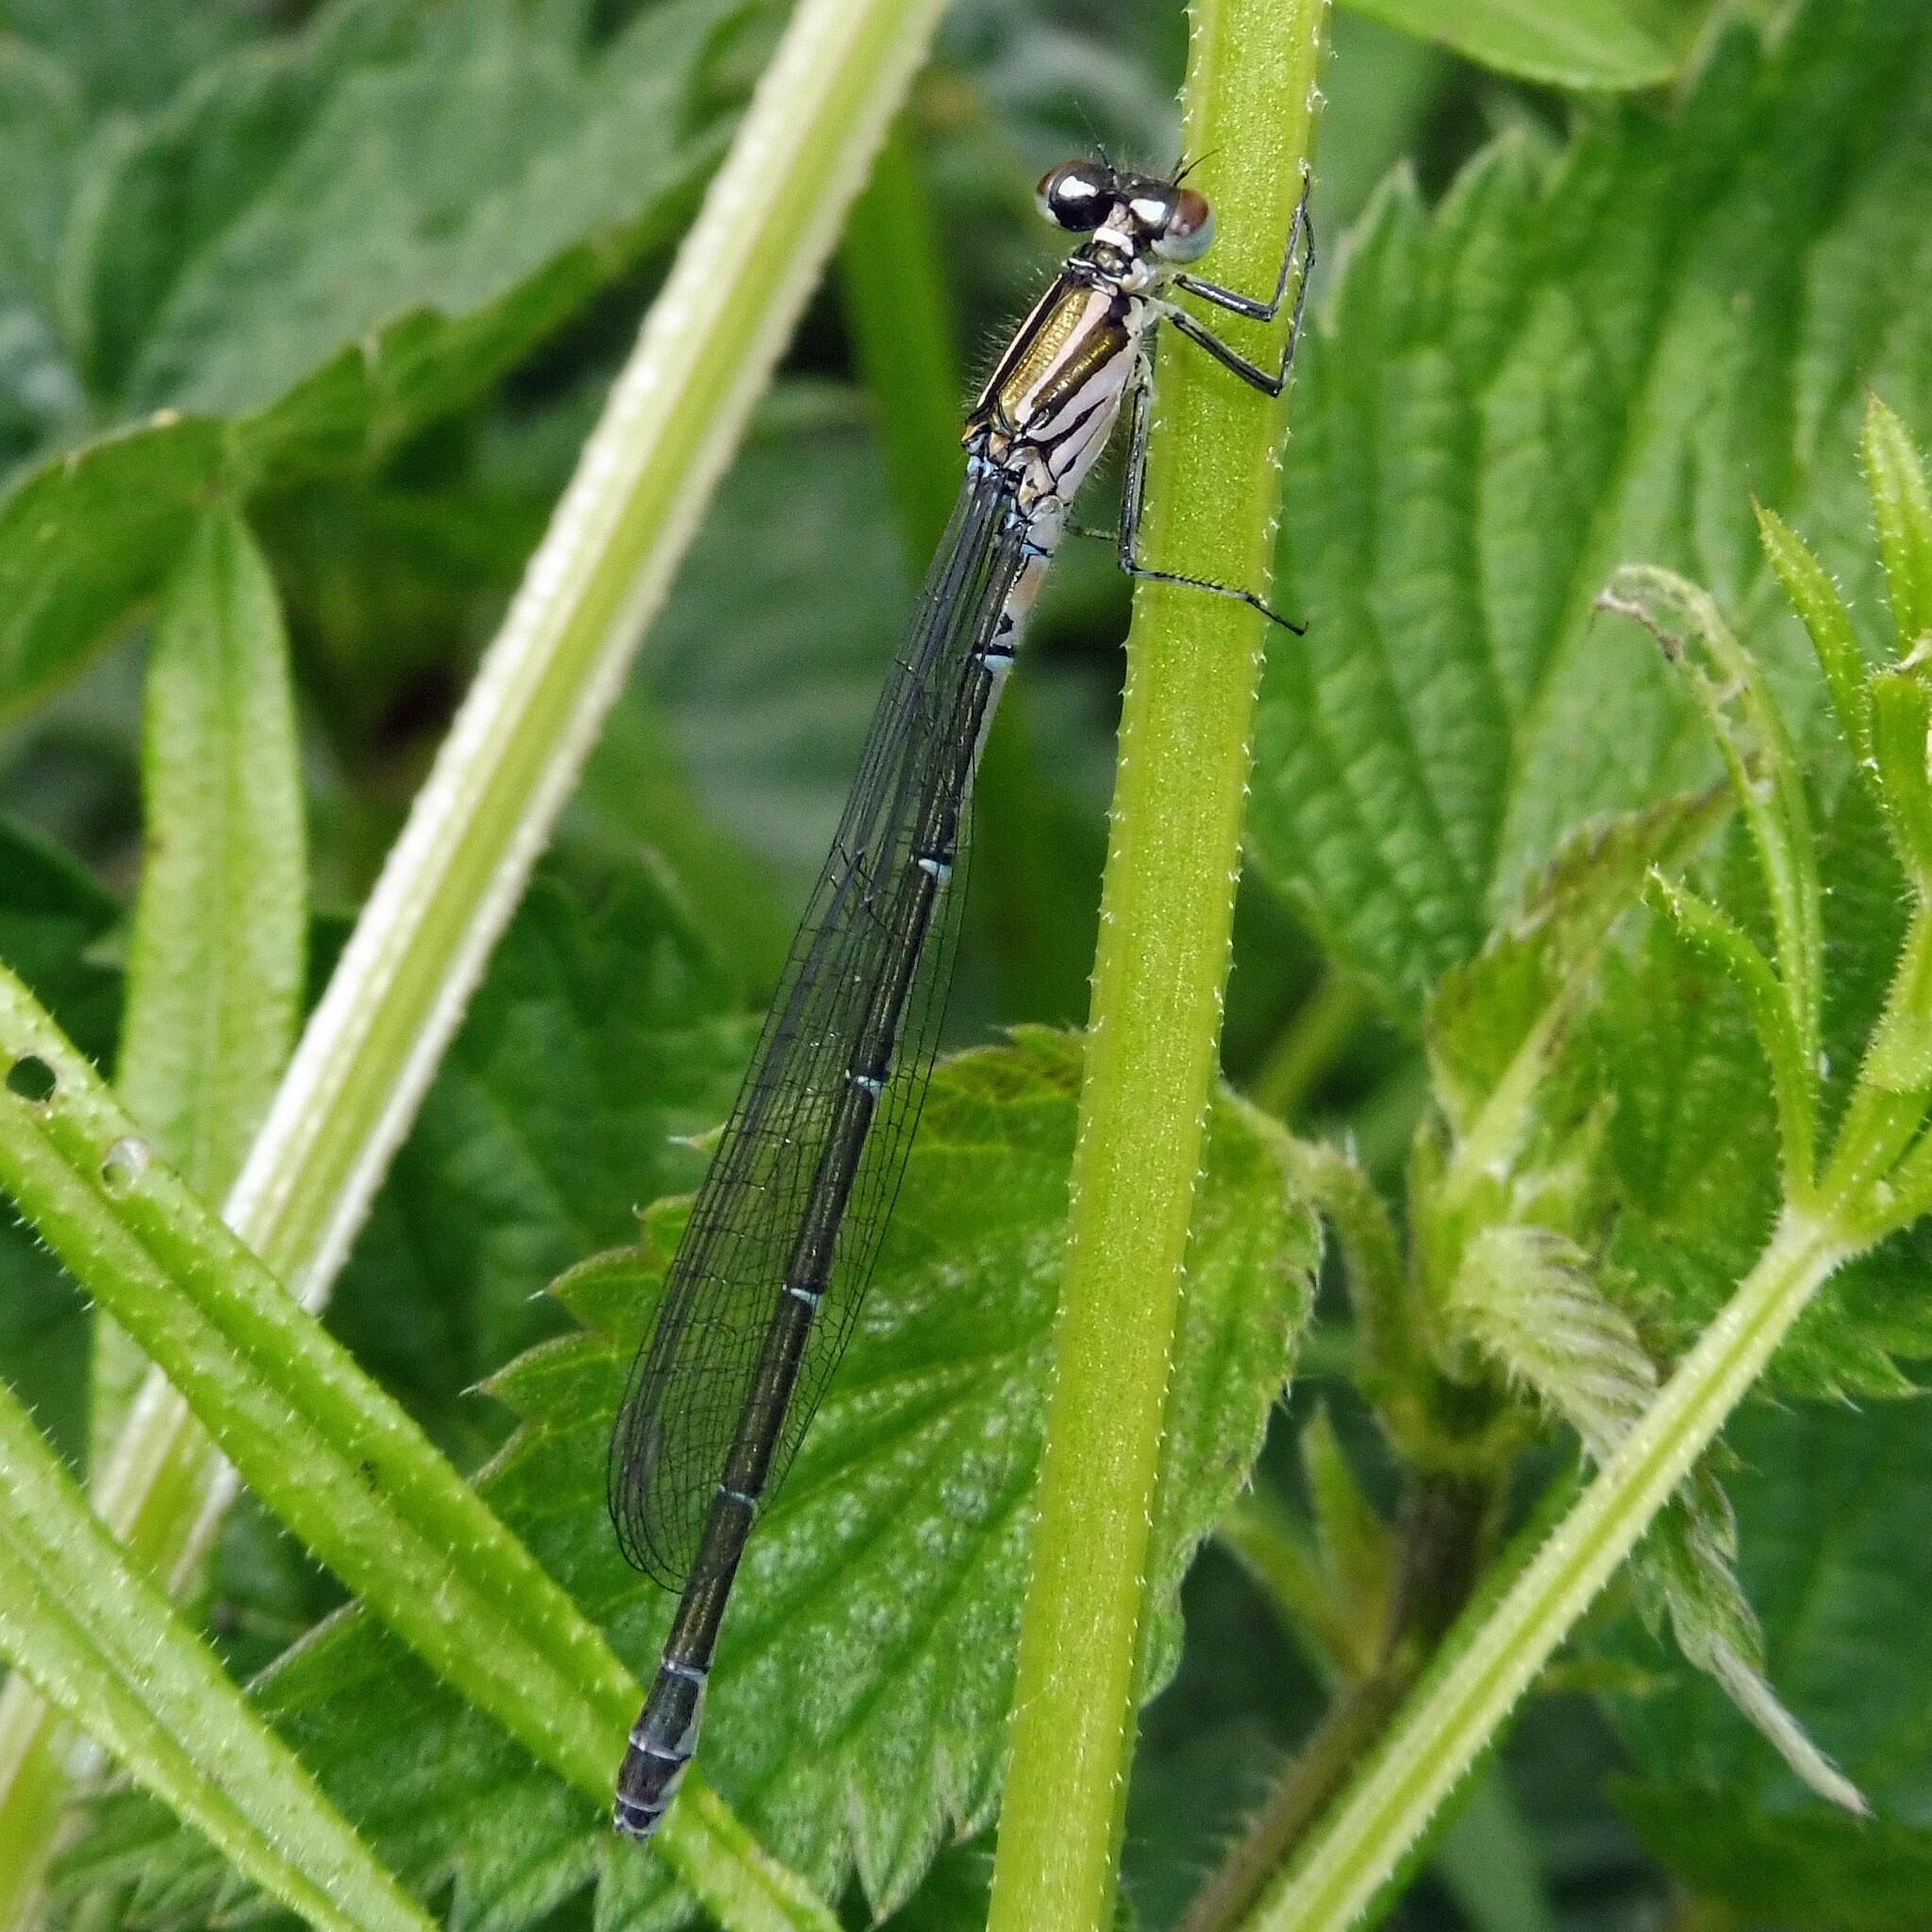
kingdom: Animalia
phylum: Arthropoda
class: Insecta
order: Odonata
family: Coenagrionidae
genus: Coenagrion
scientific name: Coenagrion puella
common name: Azure damselfly
